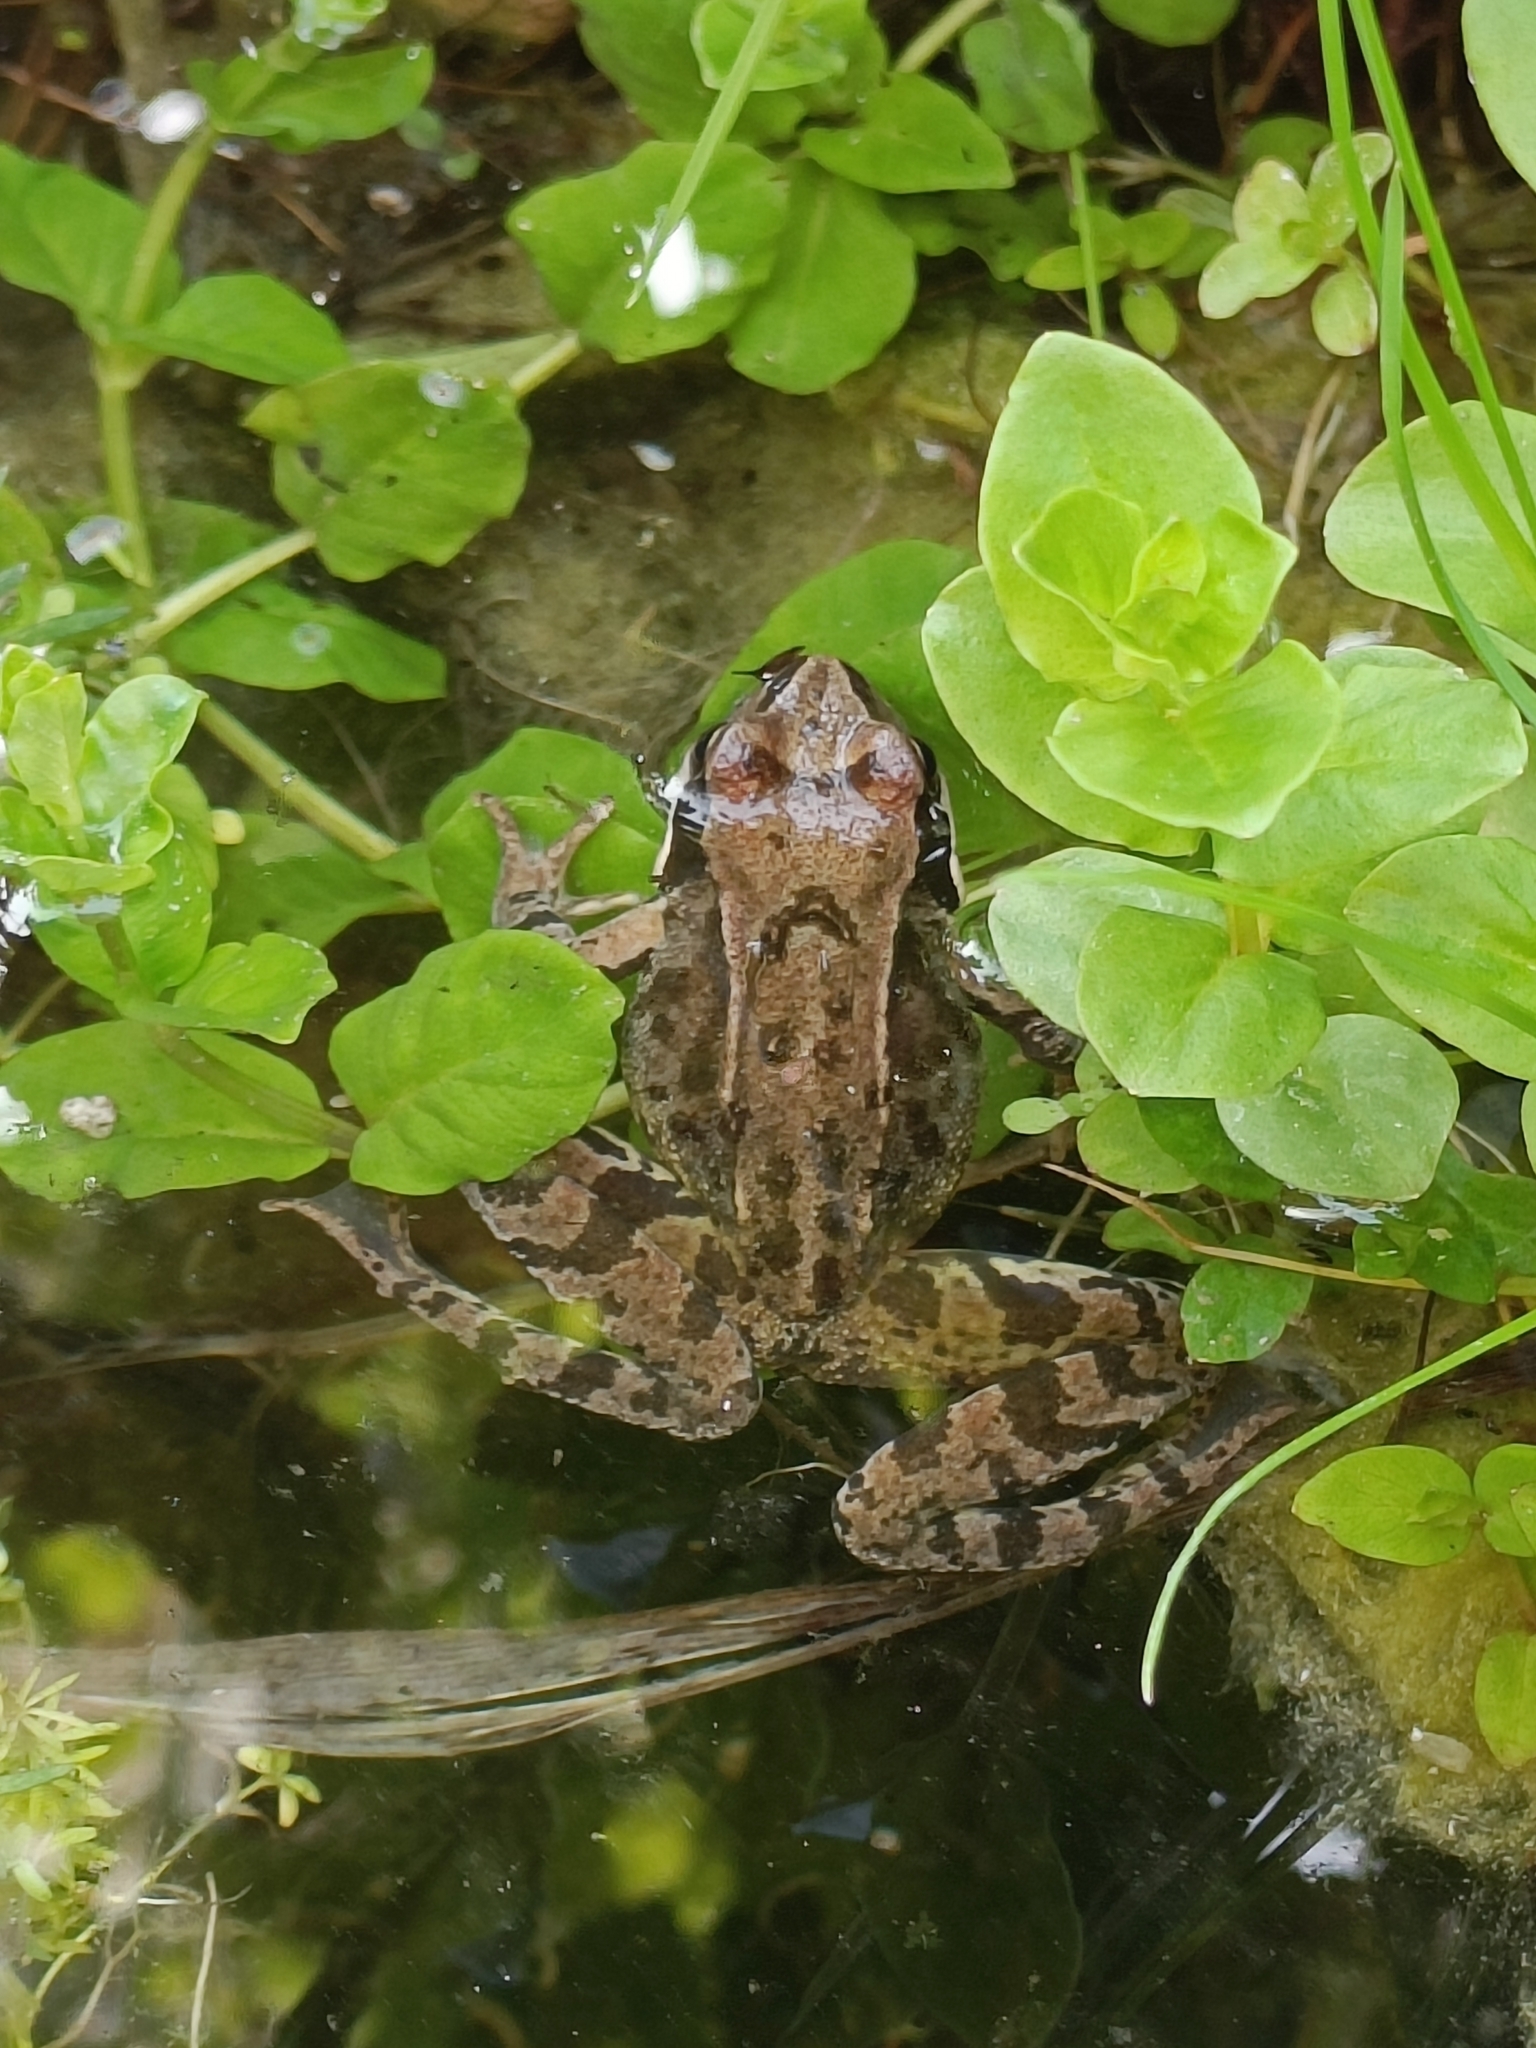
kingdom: Animalia
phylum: Chordata
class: Amphibia
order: Anura
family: Ranidae
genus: Rana
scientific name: Rana temporaria
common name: Common frog
